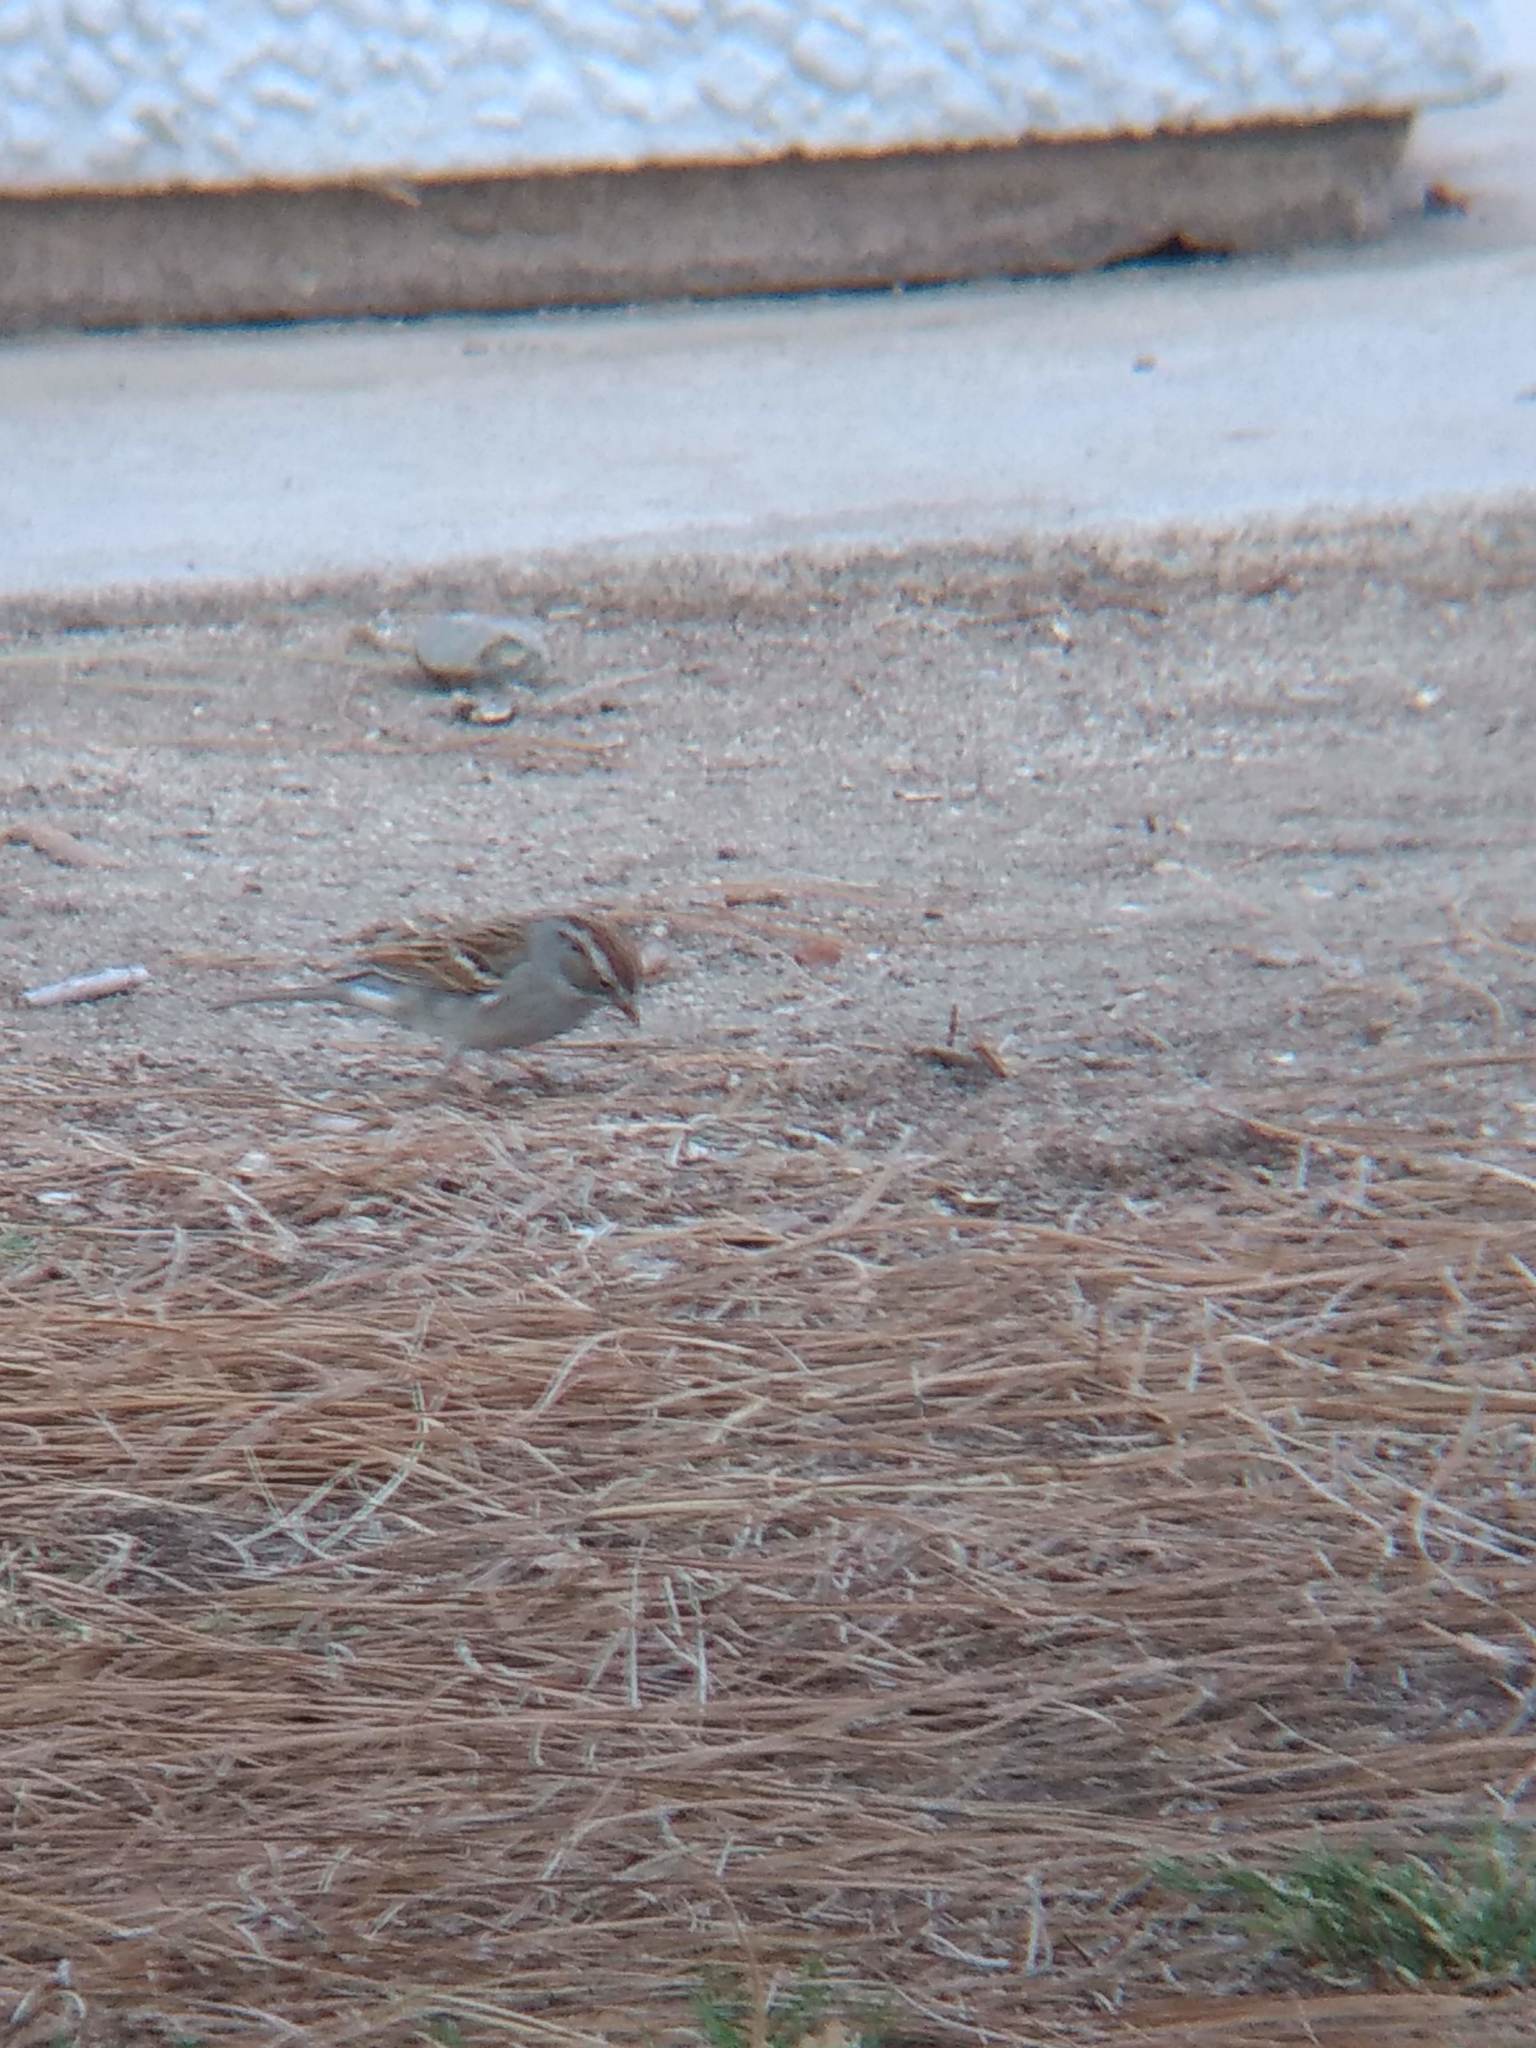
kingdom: Animalia
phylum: Chordata
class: Aves
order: Passeriformes
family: Passerellidae
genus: Spizella
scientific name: Spizella passerina
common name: Chipping sparrow
